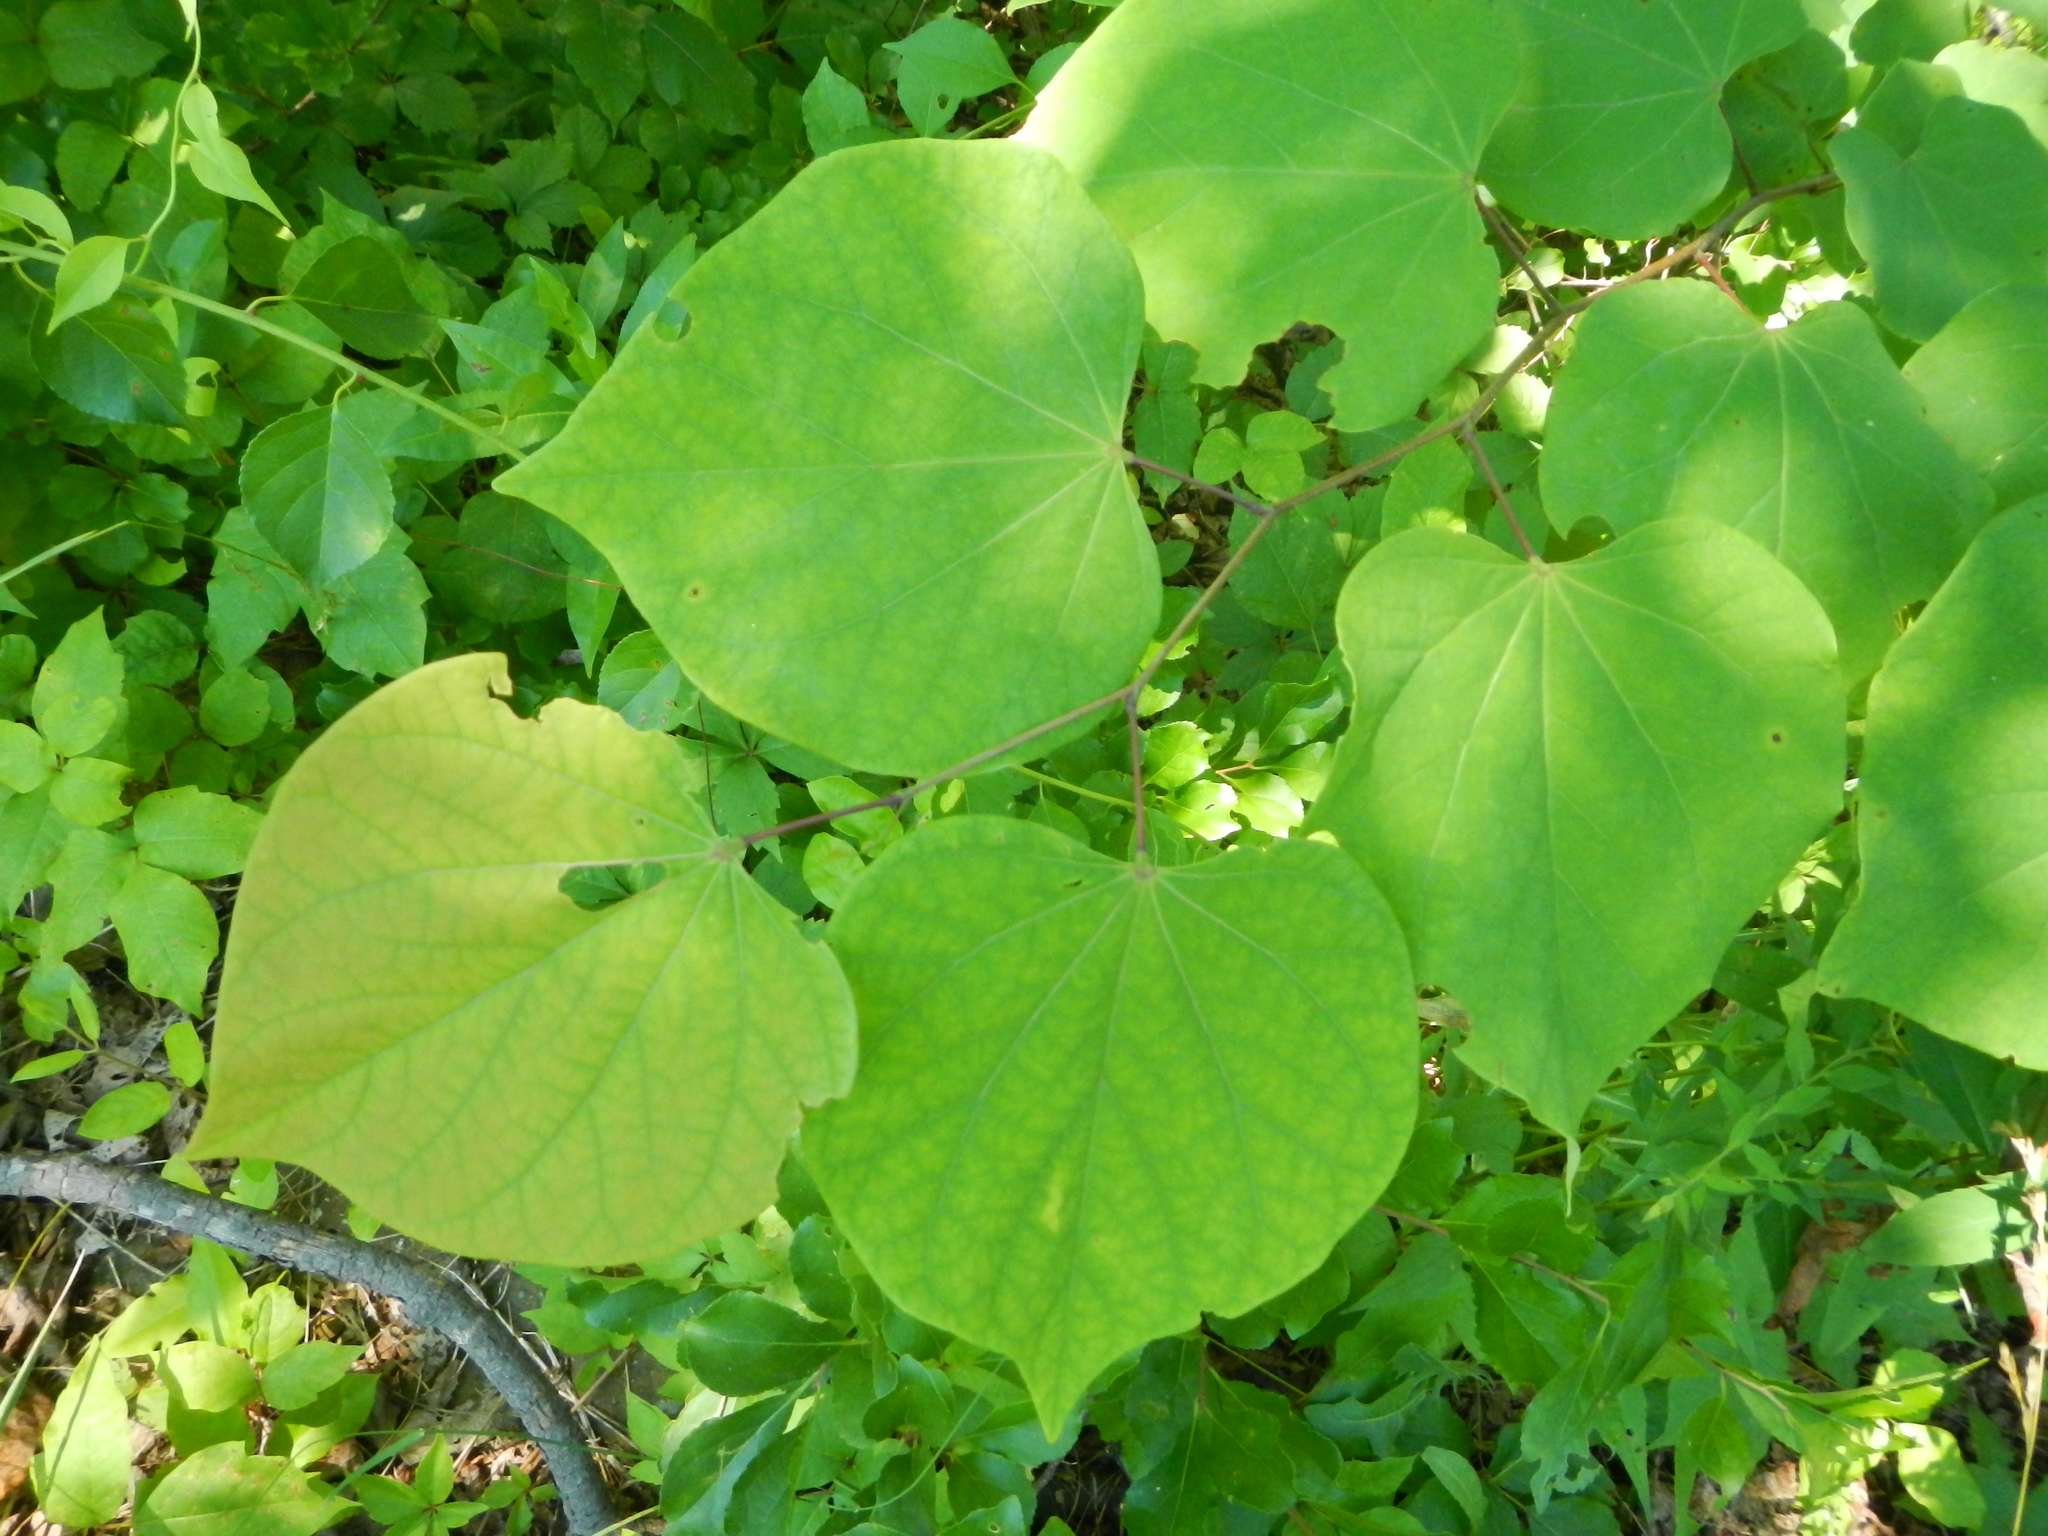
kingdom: Plantae
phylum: Tracheophyta
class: Magnoliopsida
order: Fabales
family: Fabaceae
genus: Cercis
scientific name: Cercis canadensis
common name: Eastern redbud
